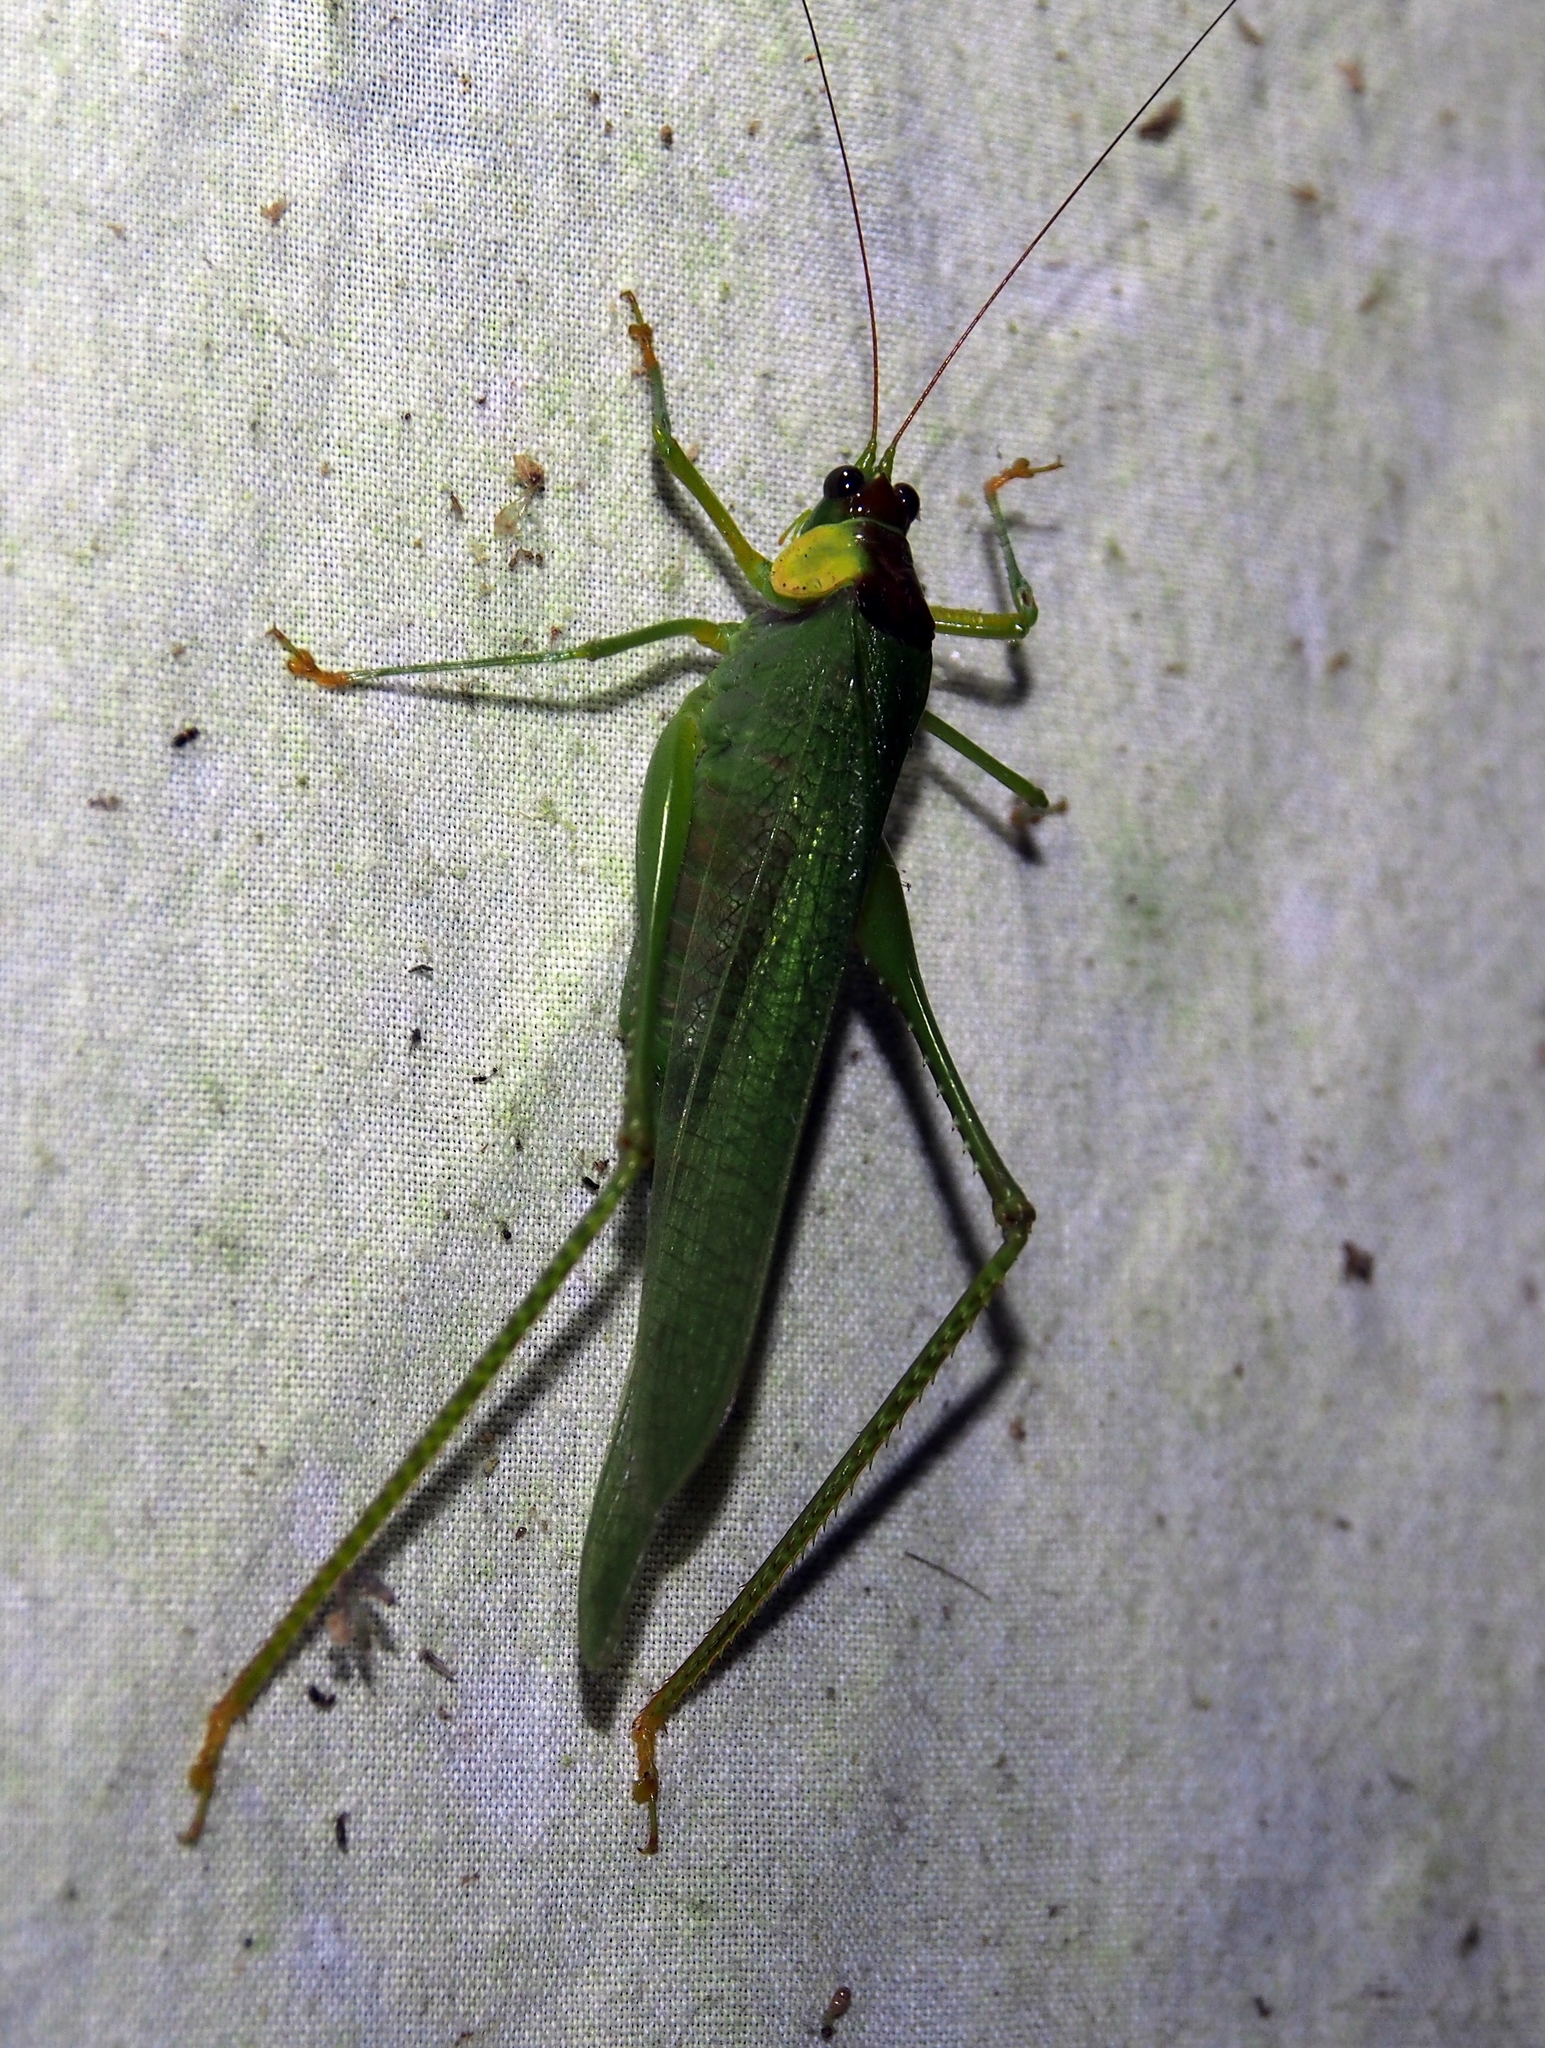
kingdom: Animalia
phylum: Arthropoda
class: Insecta
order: Orthoptera
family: Tettigoniidae
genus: Euceraia
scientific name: Euceraia atryx
